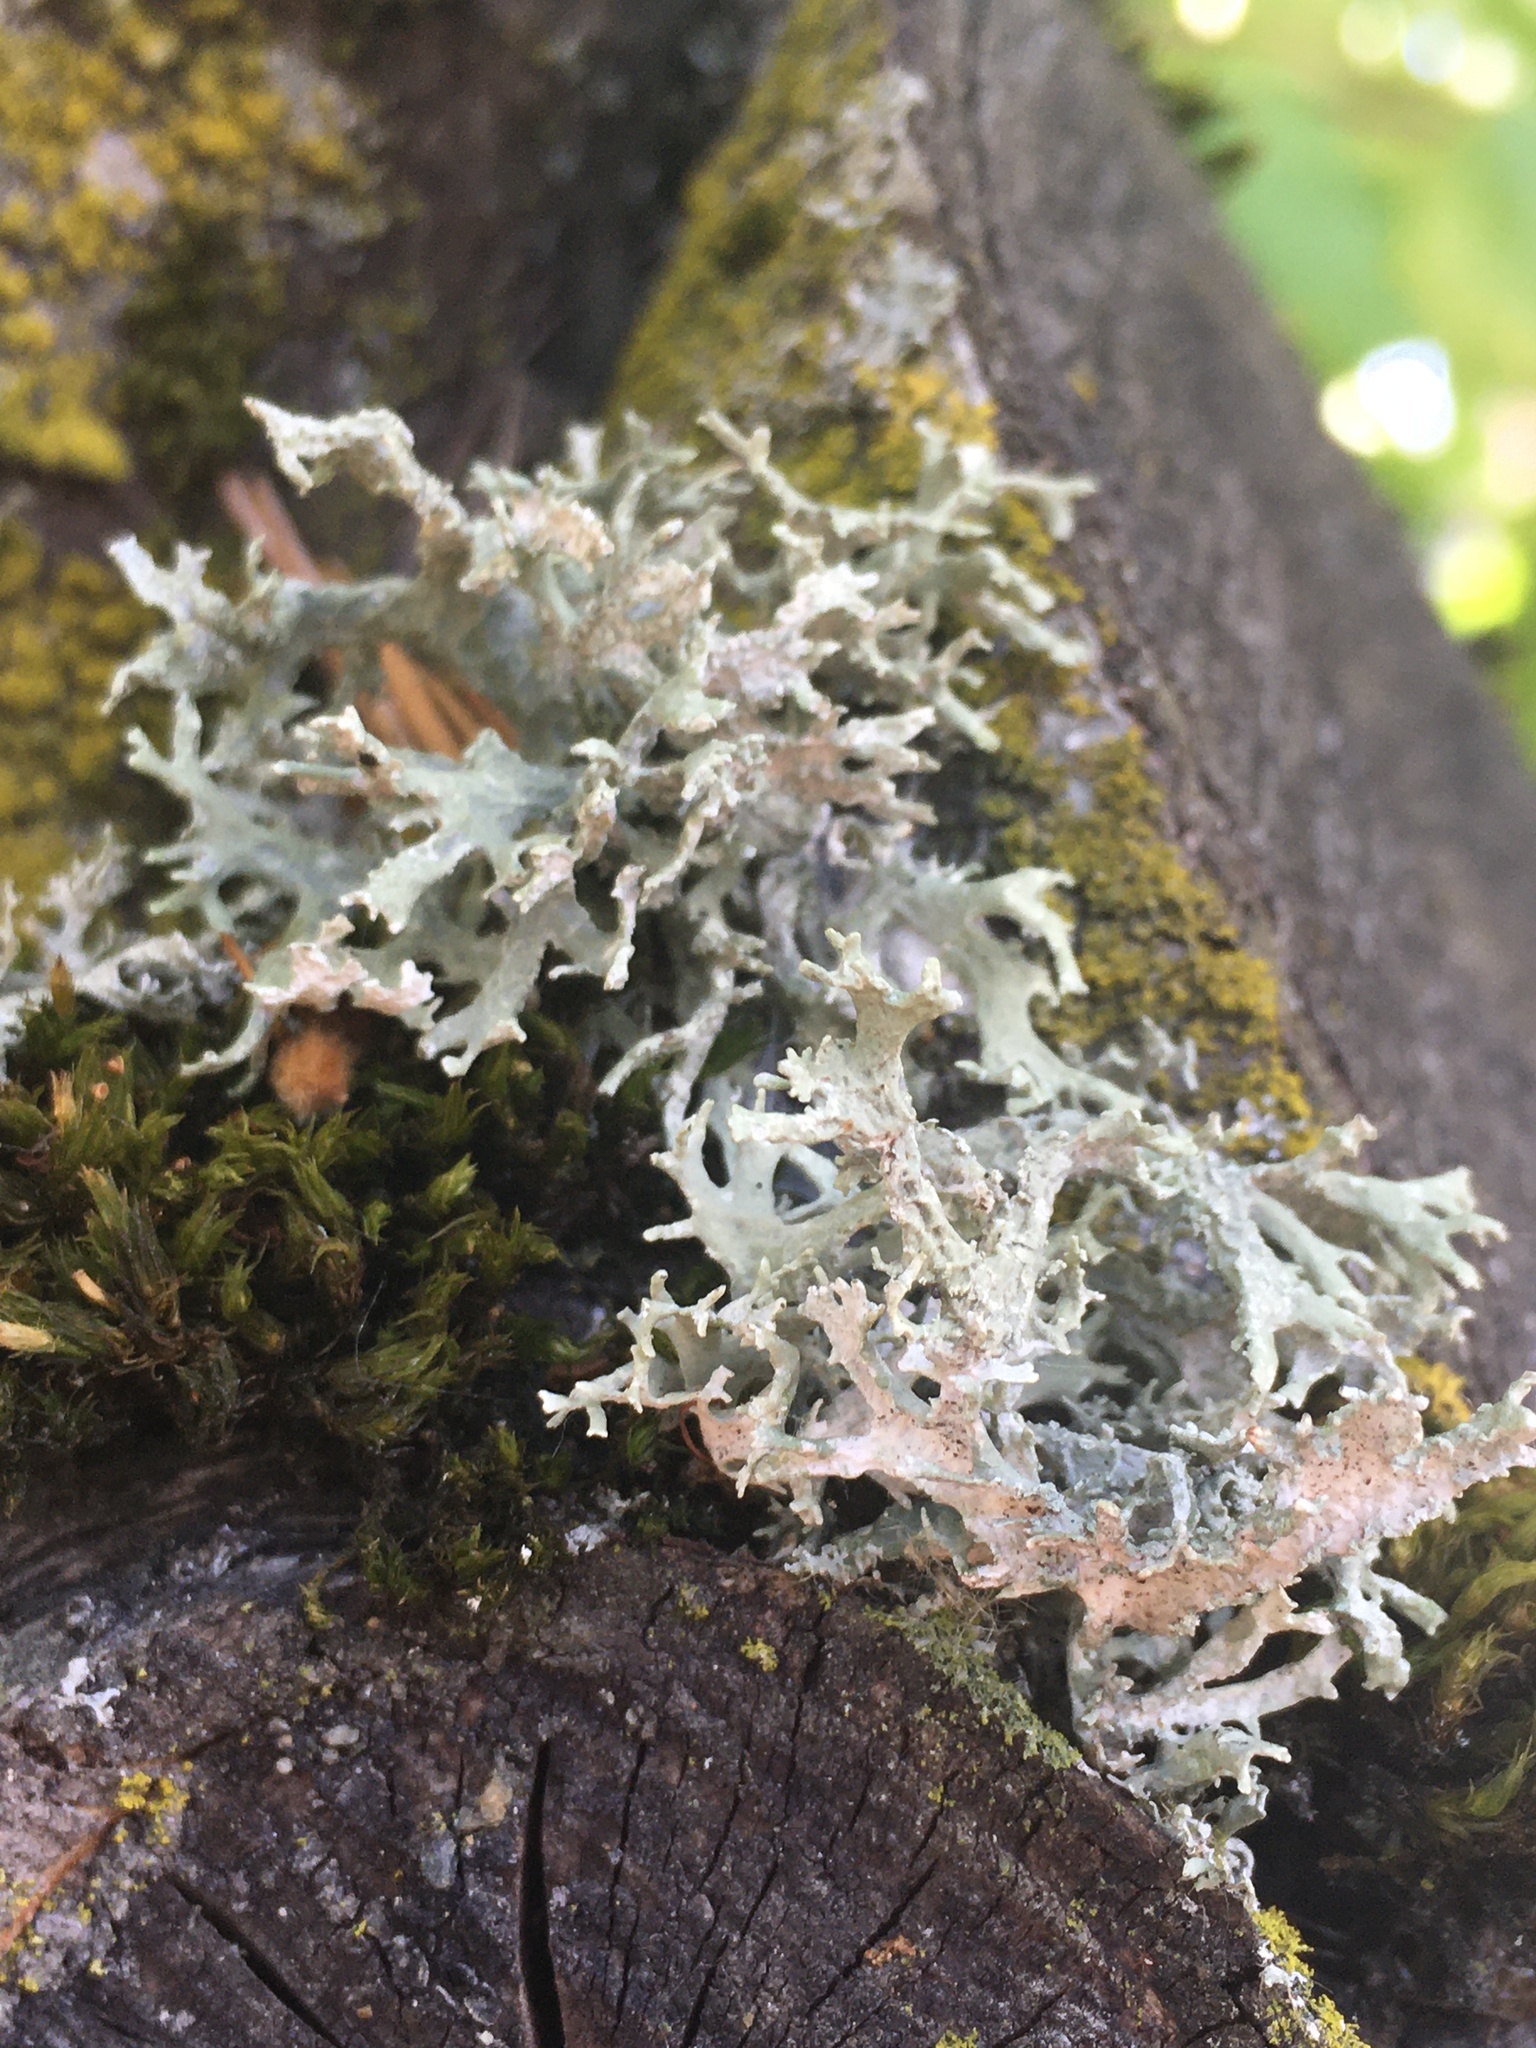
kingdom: Fungi
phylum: Ascomycota
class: Lecanoromycetes
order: Lecanorales
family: Parmeliaceae
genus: Evernia
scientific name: Evernia prunastri
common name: Oak moss
